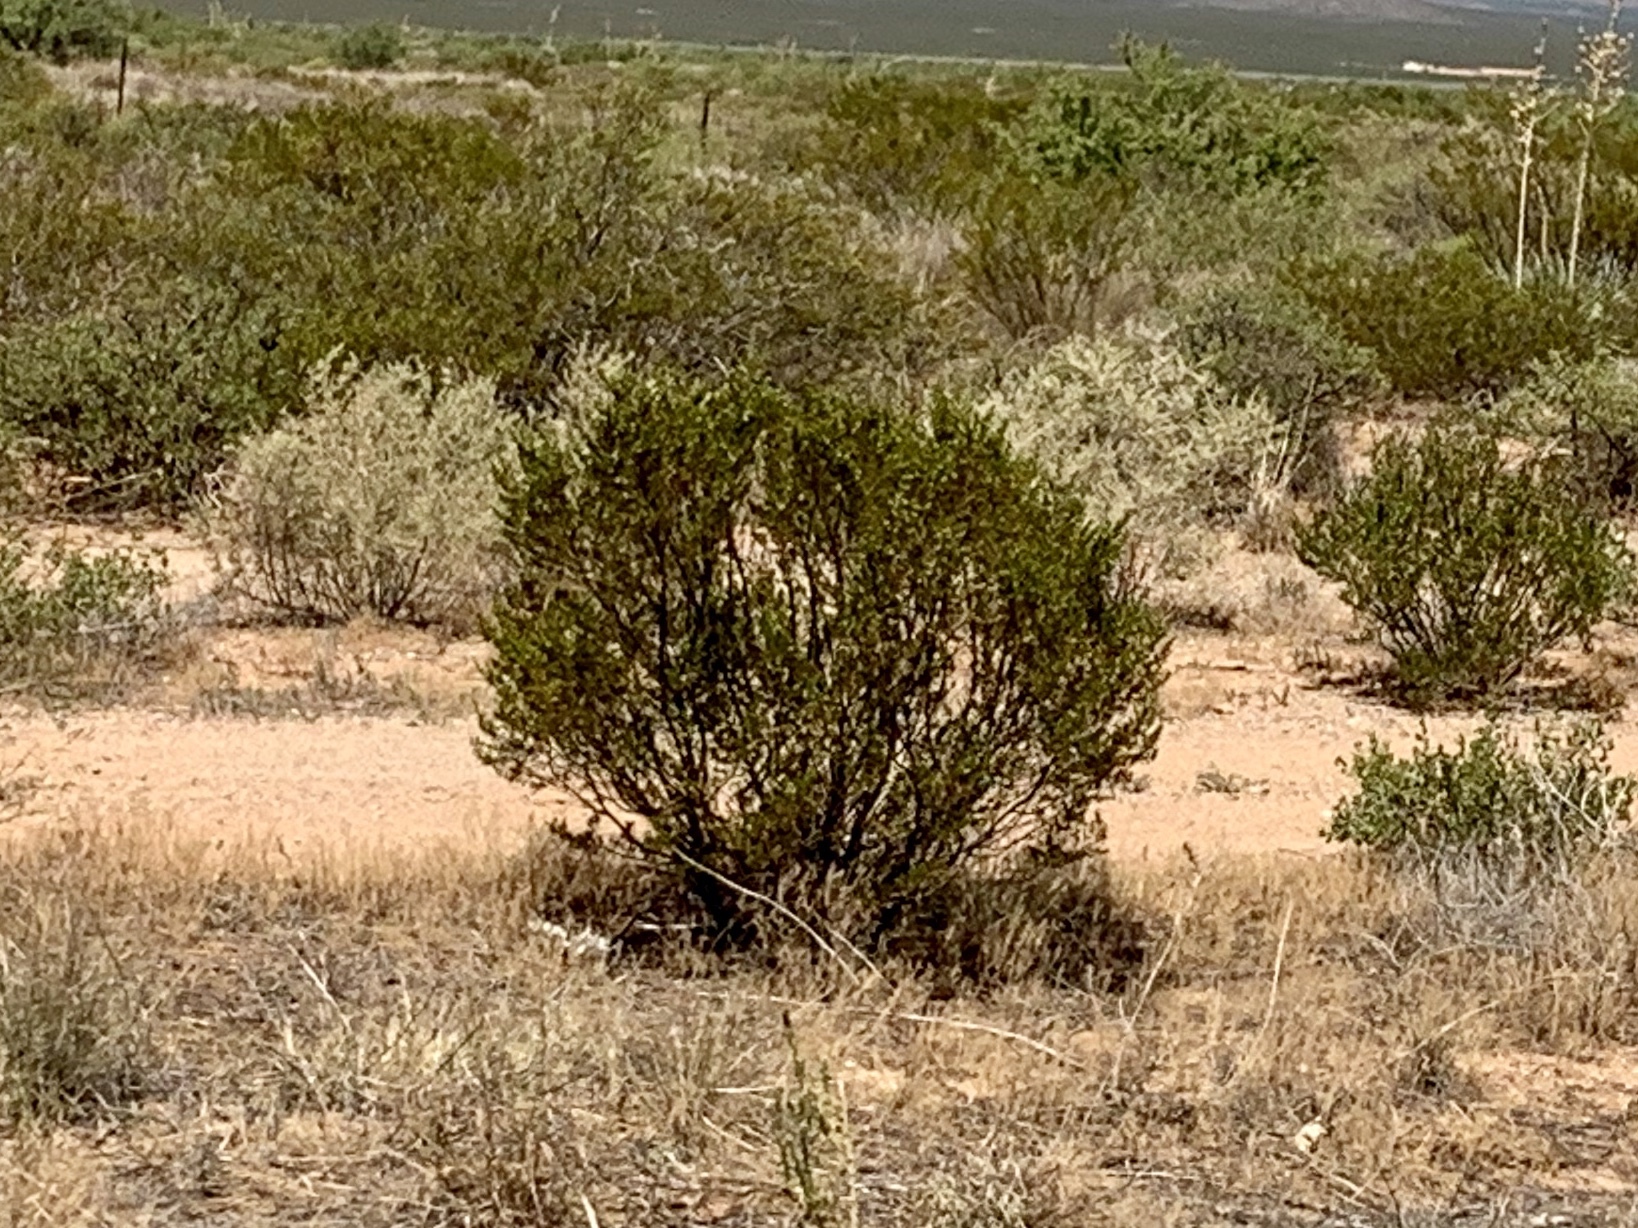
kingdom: Plantae
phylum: Tracheophyta
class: Magnoliopsida
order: Zygophyllales
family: Zygophyllaceae
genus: Larrea
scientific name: Larrea tridentata
